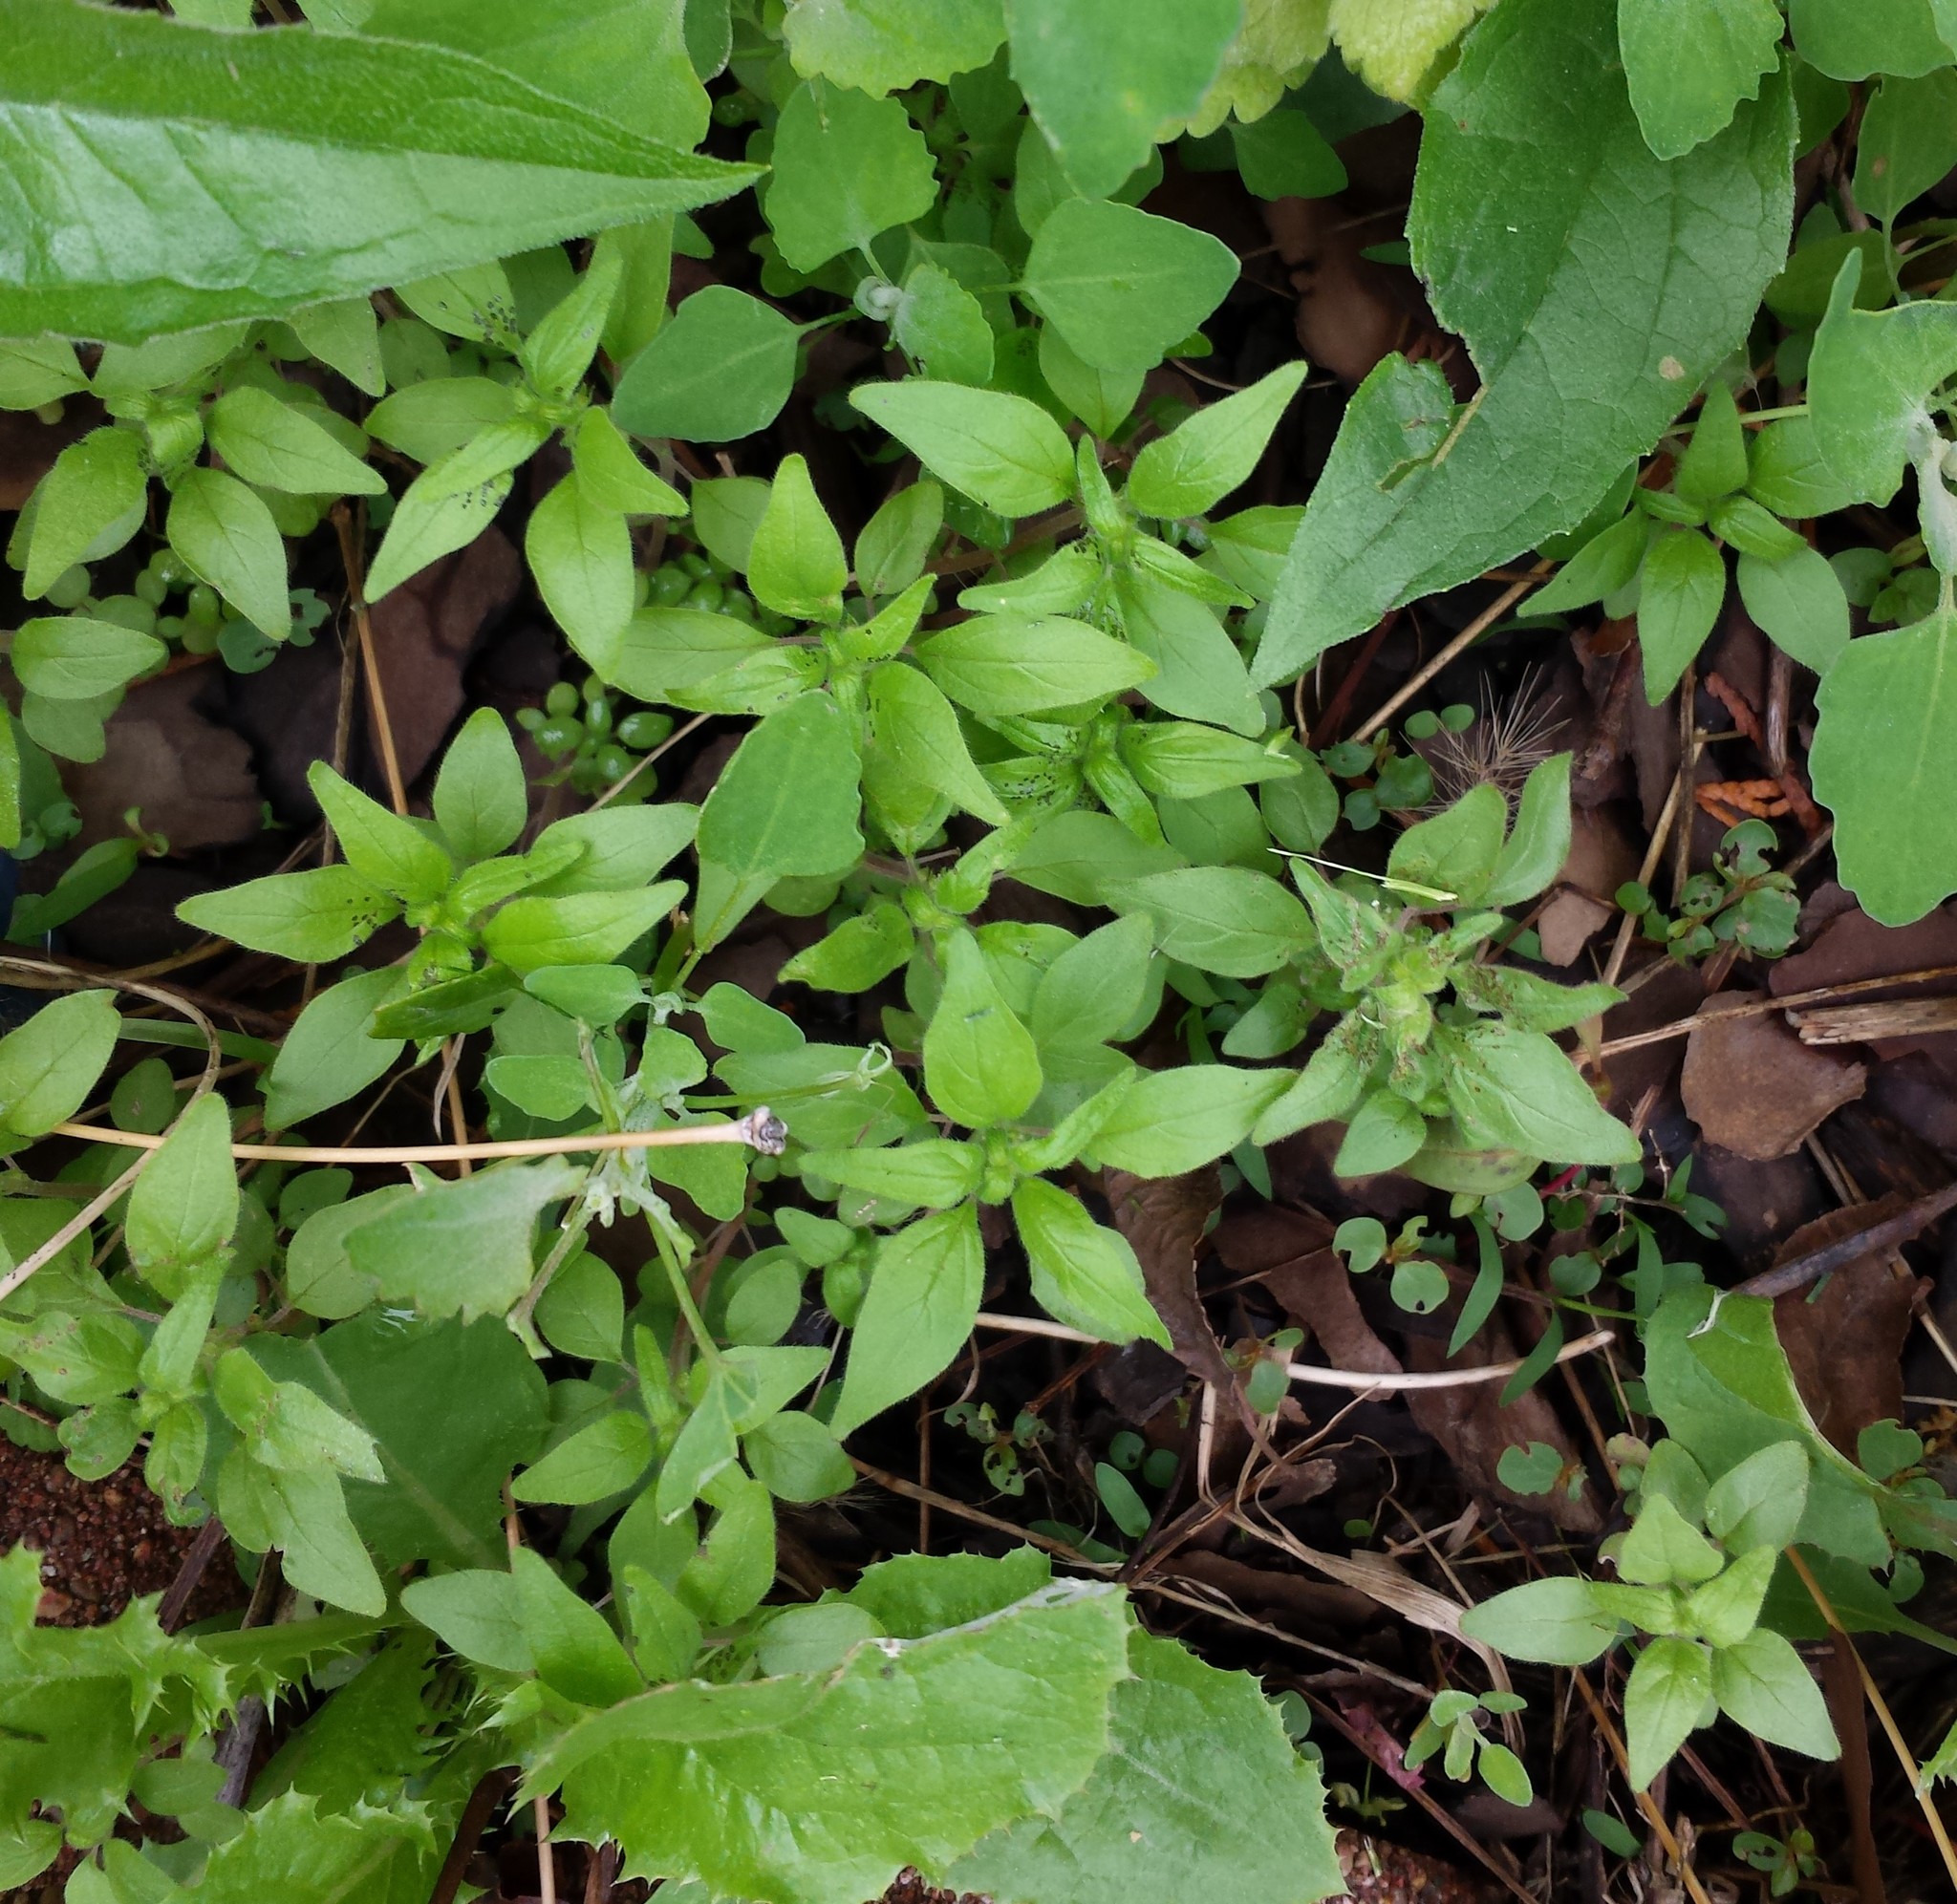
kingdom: Plantae
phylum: Tracheophyta
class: Magnoliopsida
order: Rosales
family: Urticaceae
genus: Parietaria
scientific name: Parietaria pensylvanica
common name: Pennsylvania pellitory
